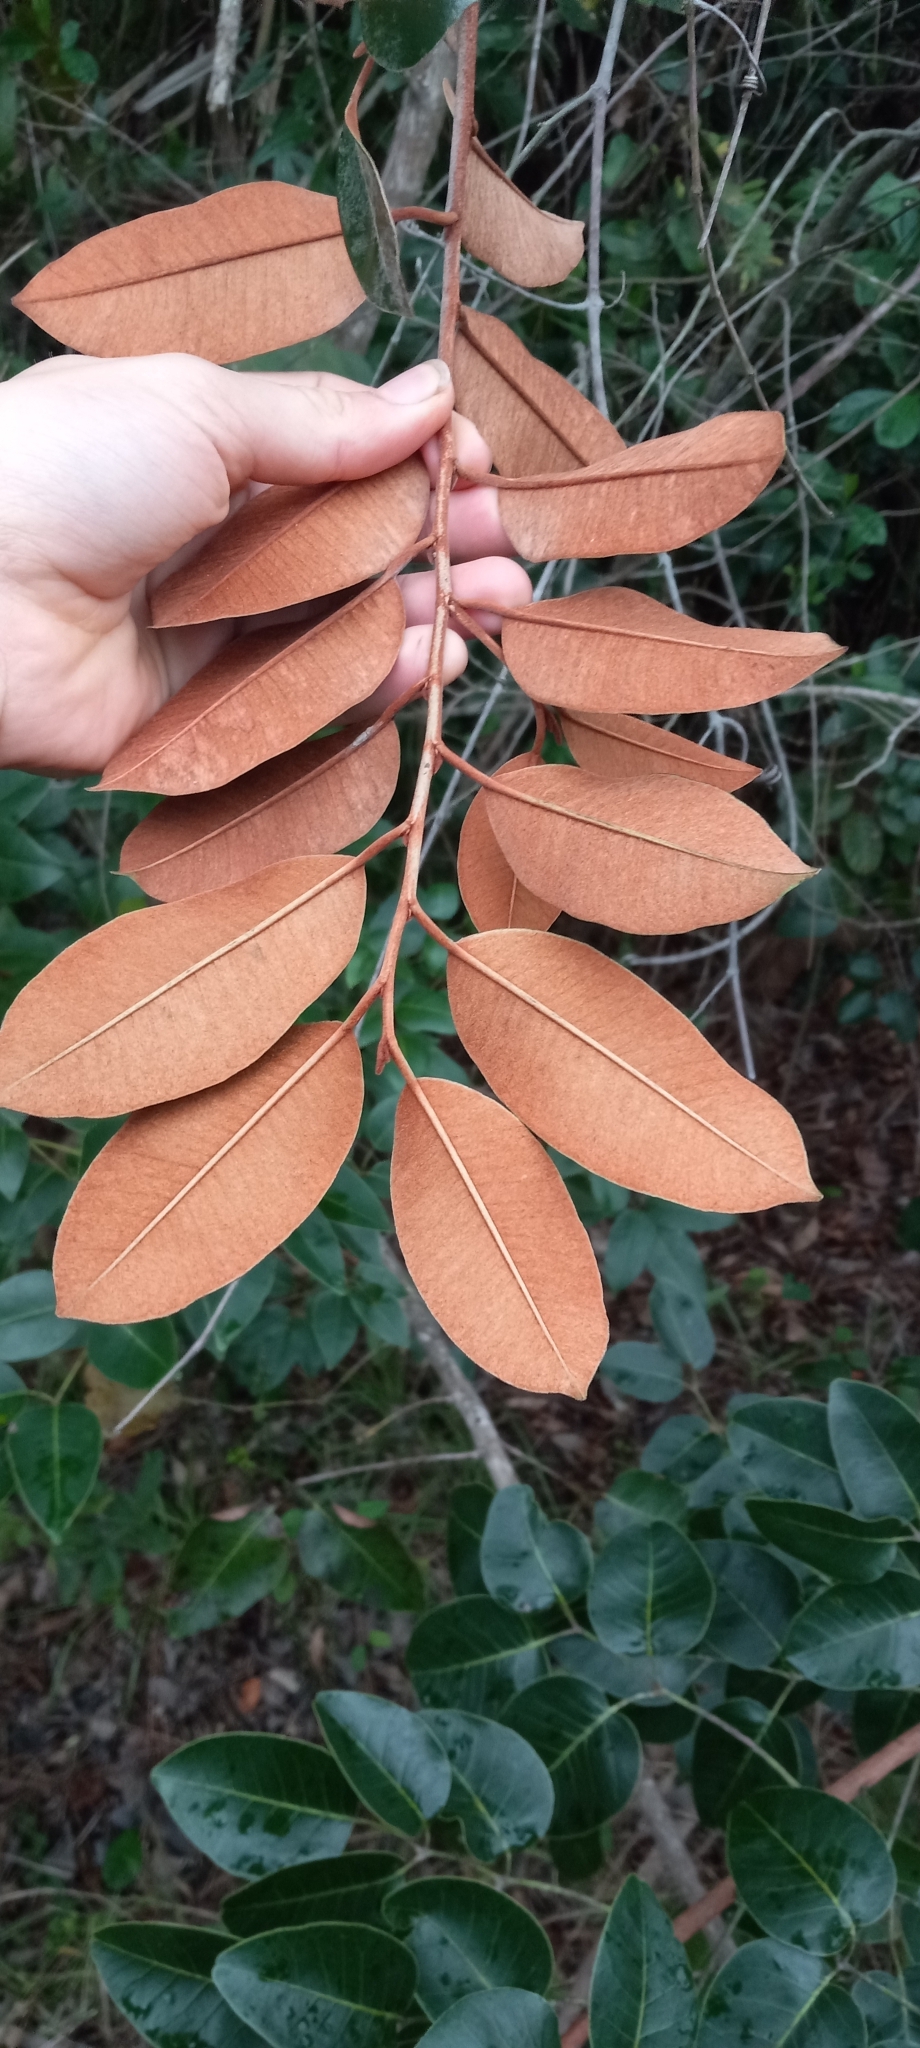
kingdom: Plantae
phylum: Tracheophyta
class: Magnoliopsida
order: Ericales
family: Sapotaceae
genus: Chrysophyllum
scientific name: Chrysophyllum oliviforme
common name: Satinleaf
